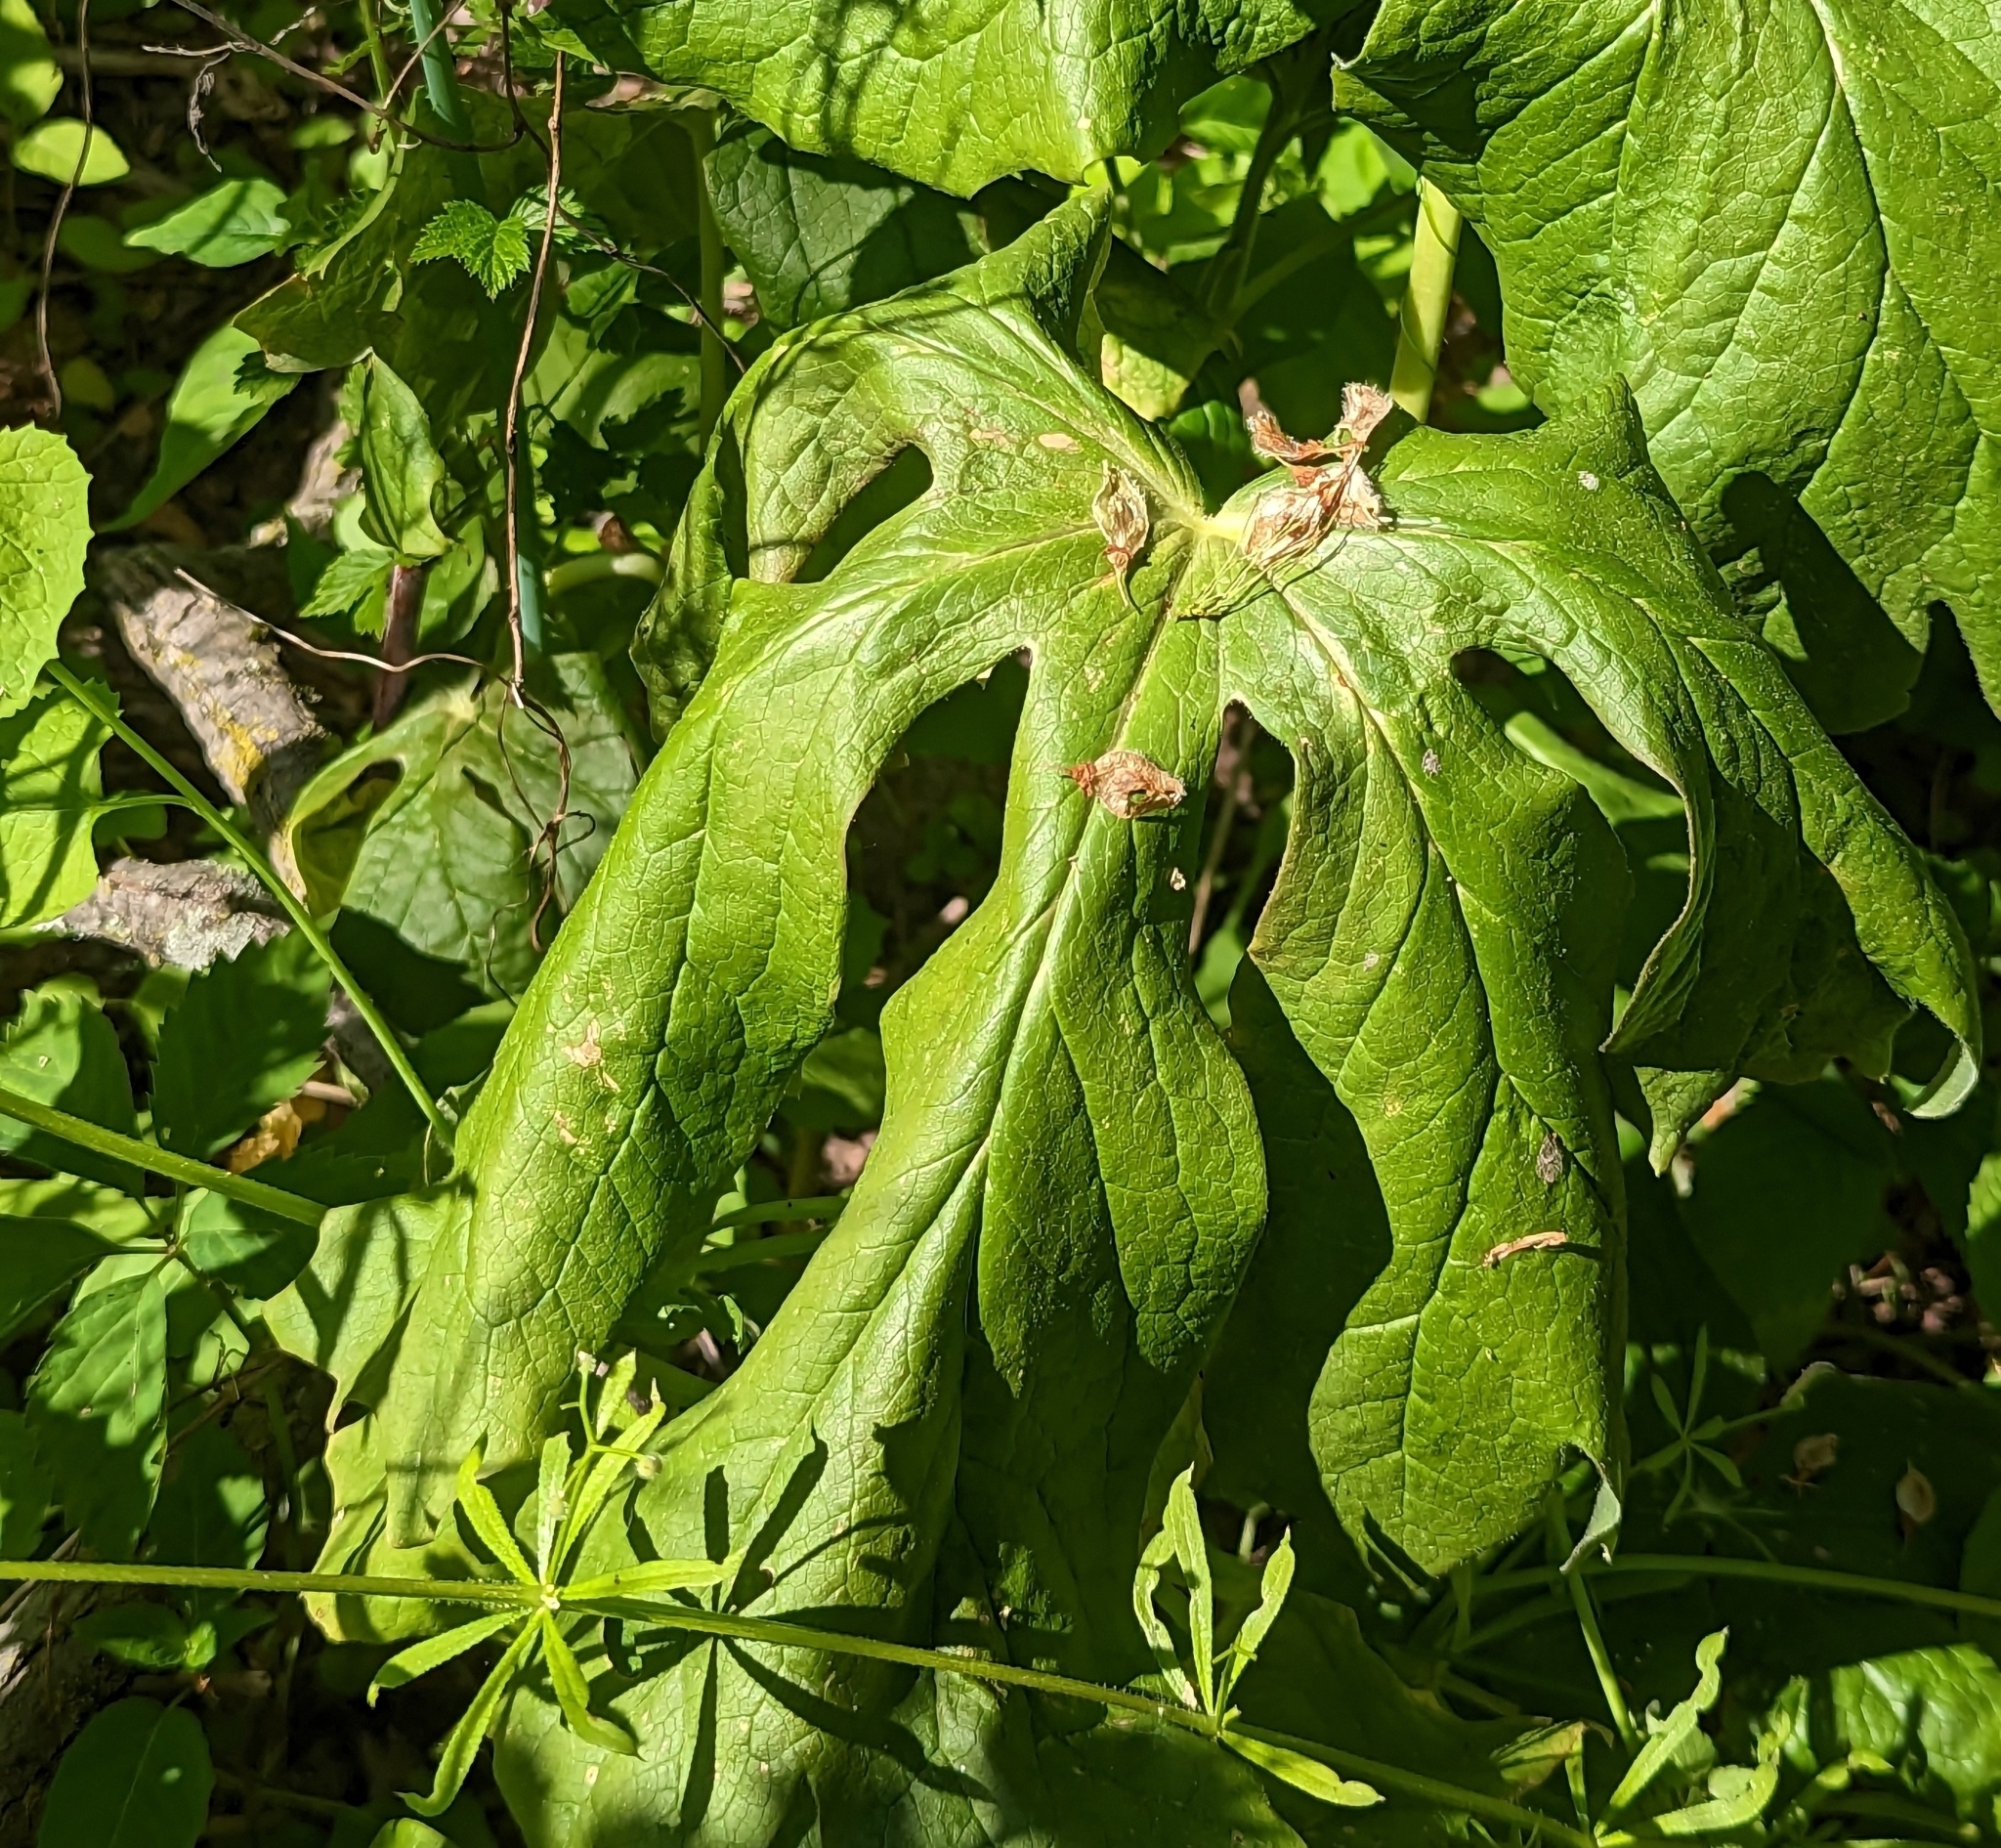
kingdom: Plantae
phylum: Tracheophyta
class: Magnoliopsida
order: Ranunculales
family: Berberidaceae
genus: Podophyllum
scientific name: Podophyllum peltatum
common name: Wild mandrake
